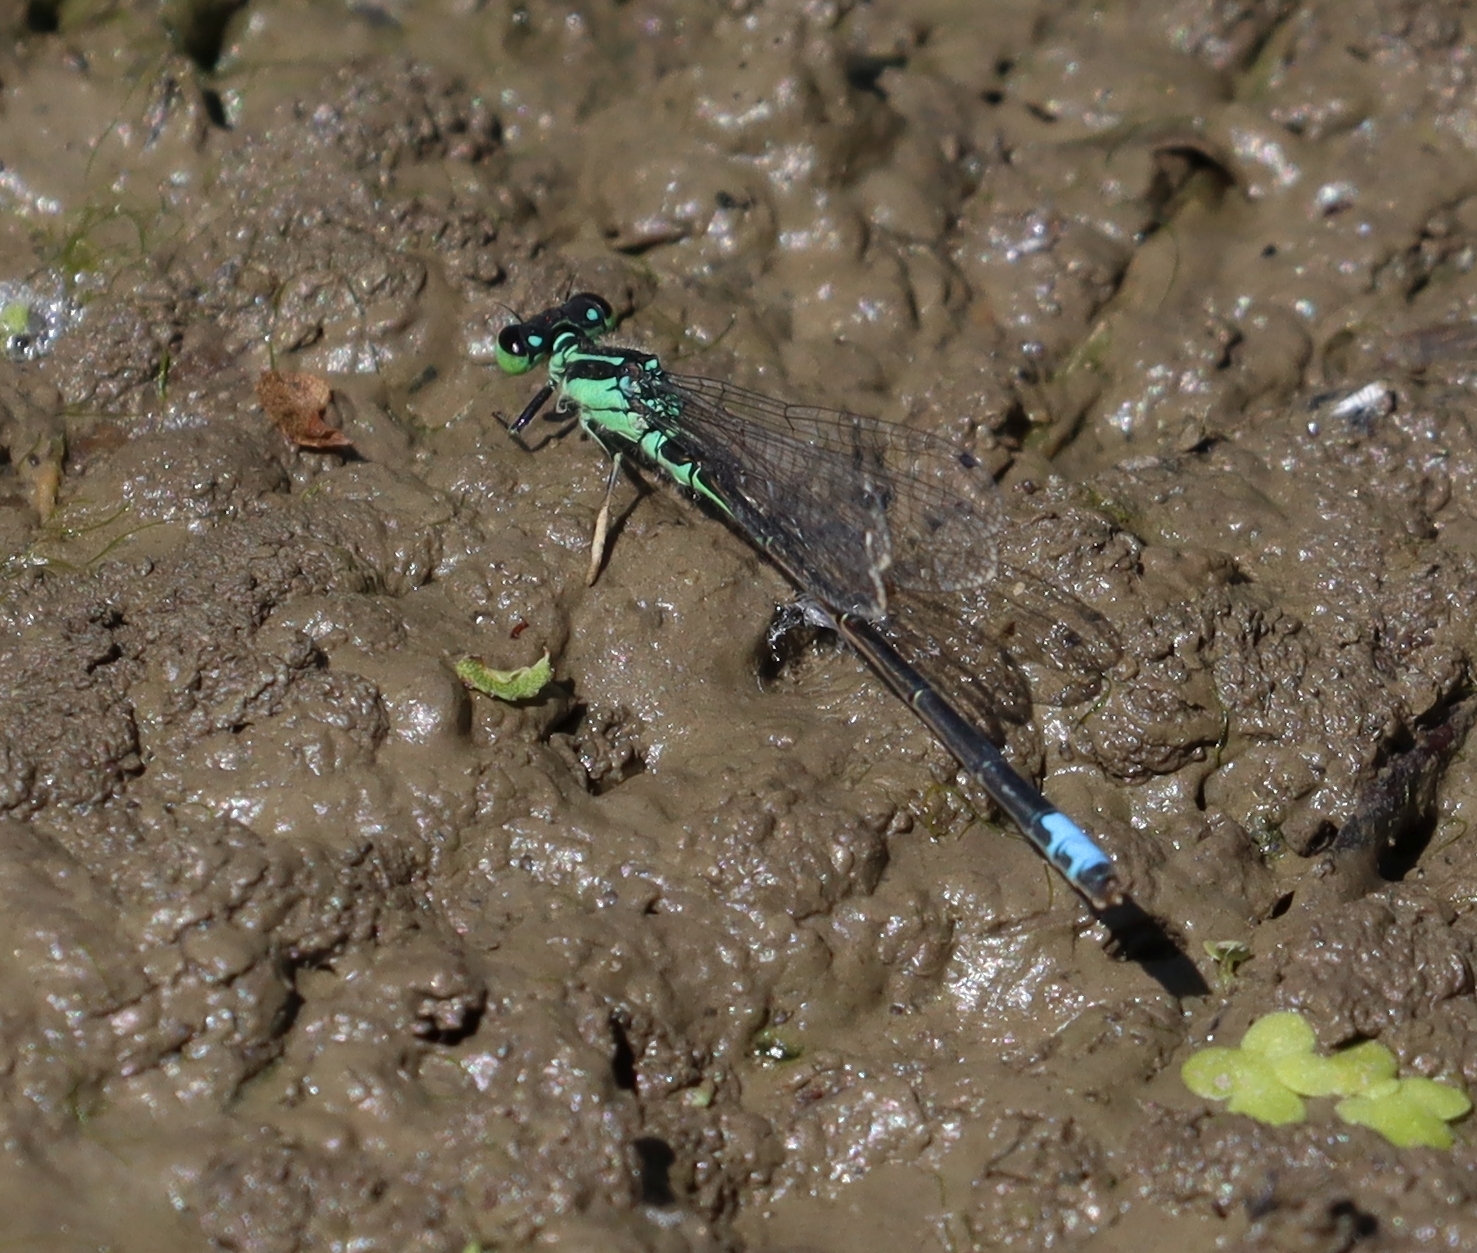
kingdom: Animalia
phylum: Arthropoda
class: Insecta
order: Odonata
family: Coenagrionidae
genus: Ischnura
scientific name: Ischnura verticalis
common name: Eastern forktail
